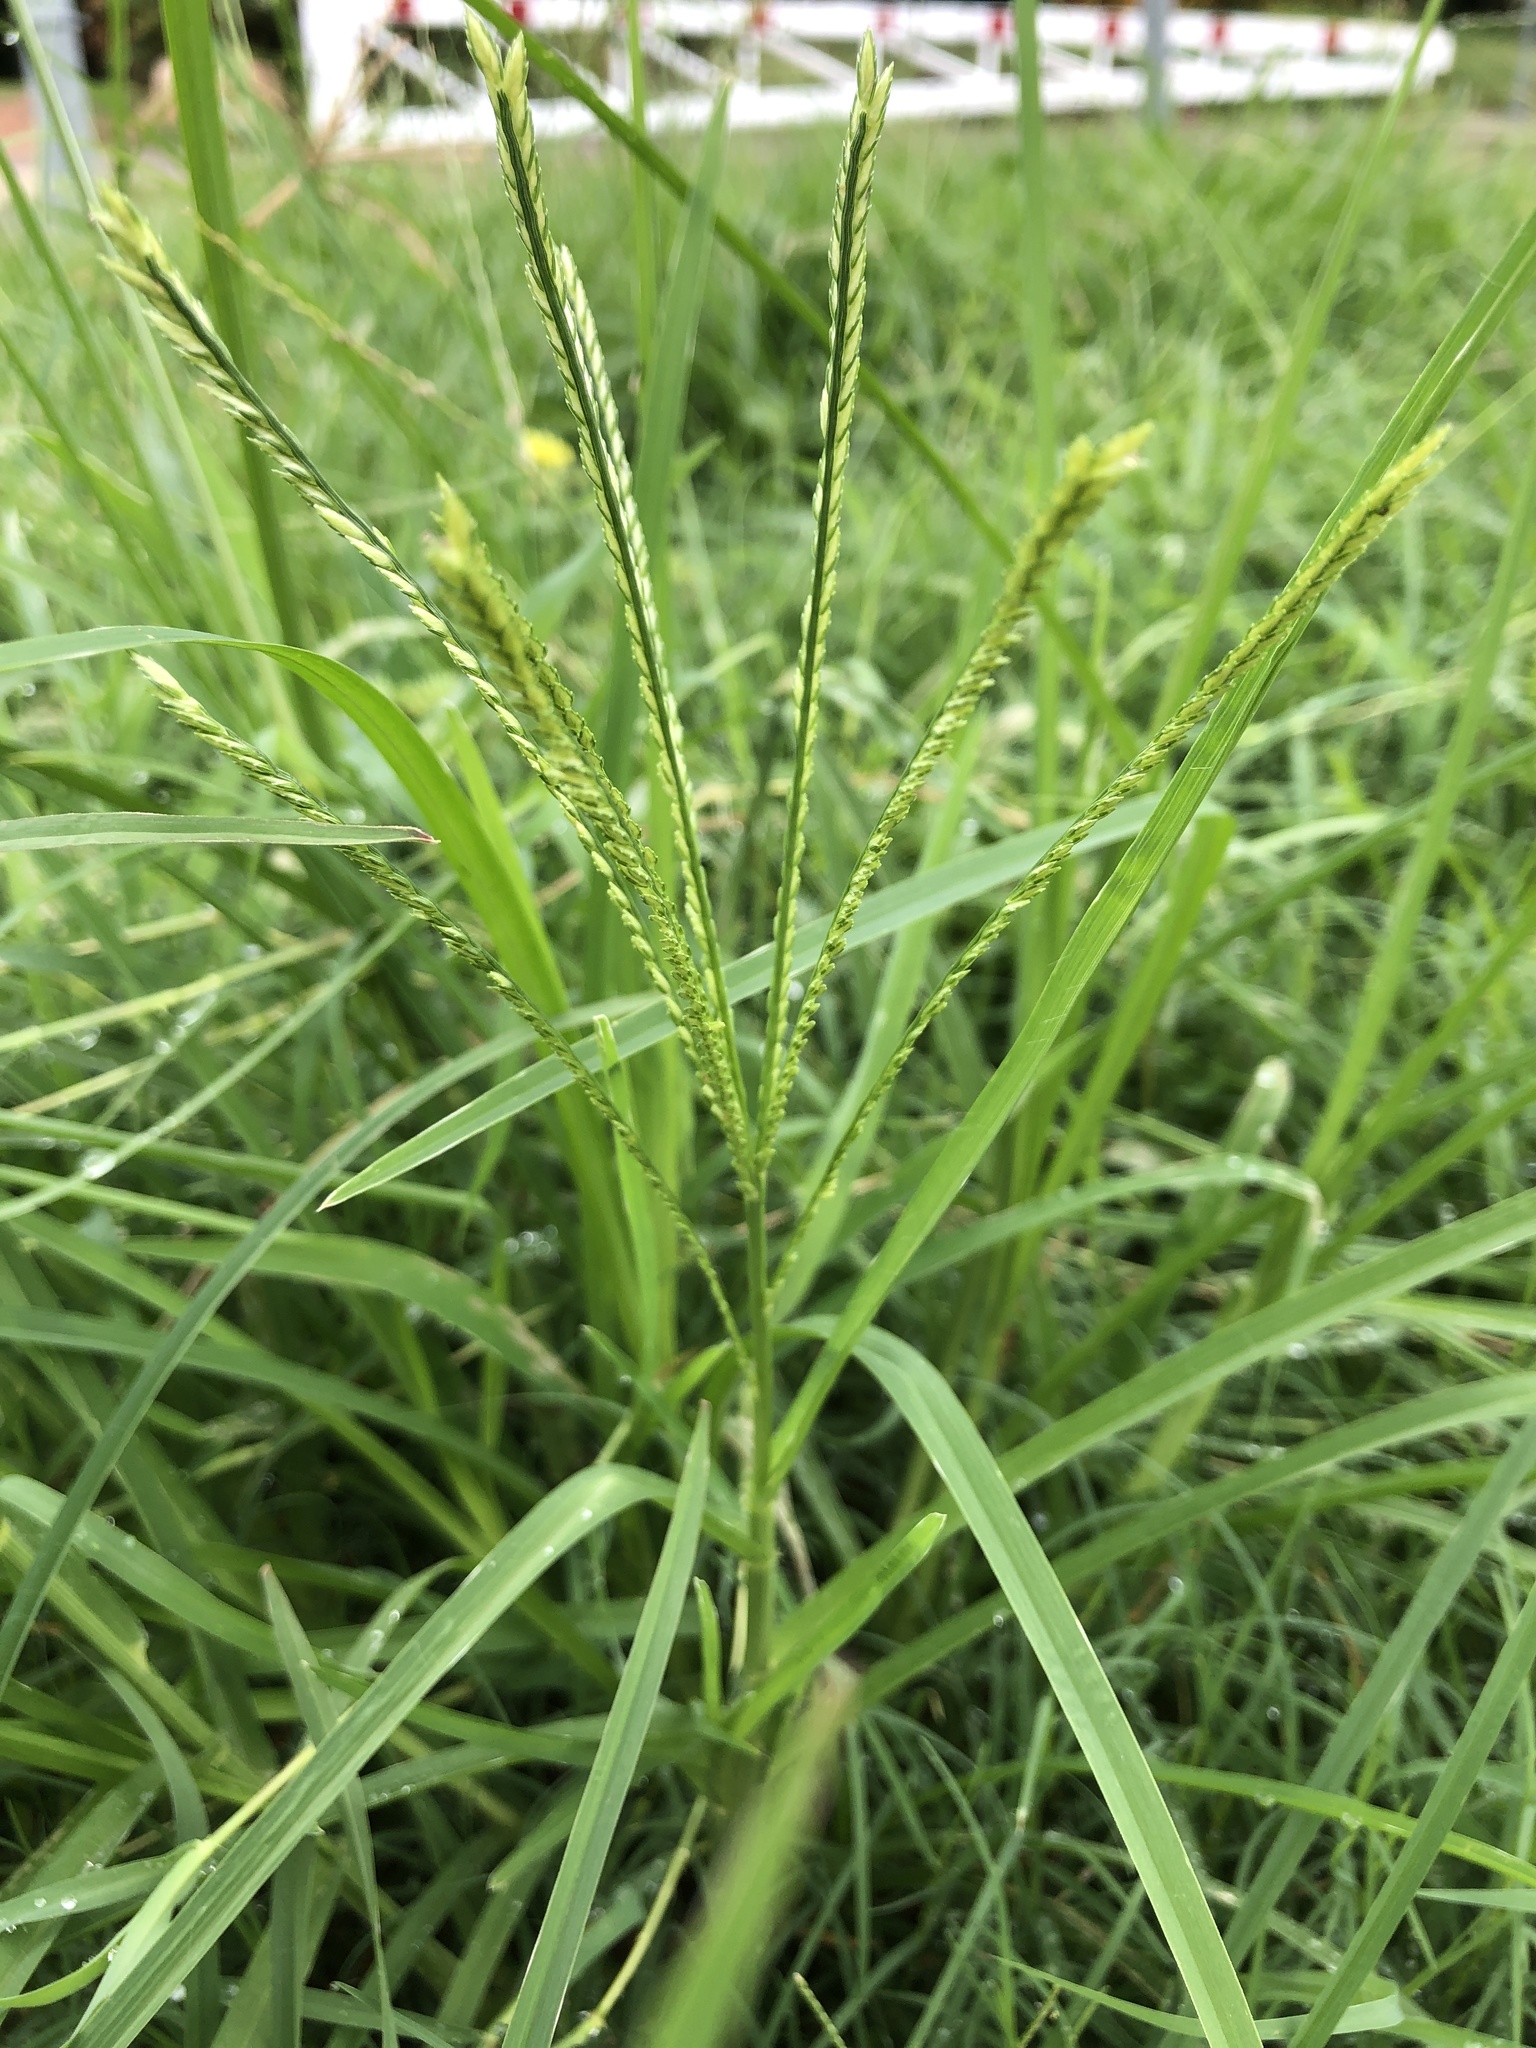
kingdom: Plantae
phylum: Tracheophyta
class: Liliopsida
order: Poales
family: Poaceae
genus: Eleusine
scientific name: Eleusine indica
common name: Yard-grass
